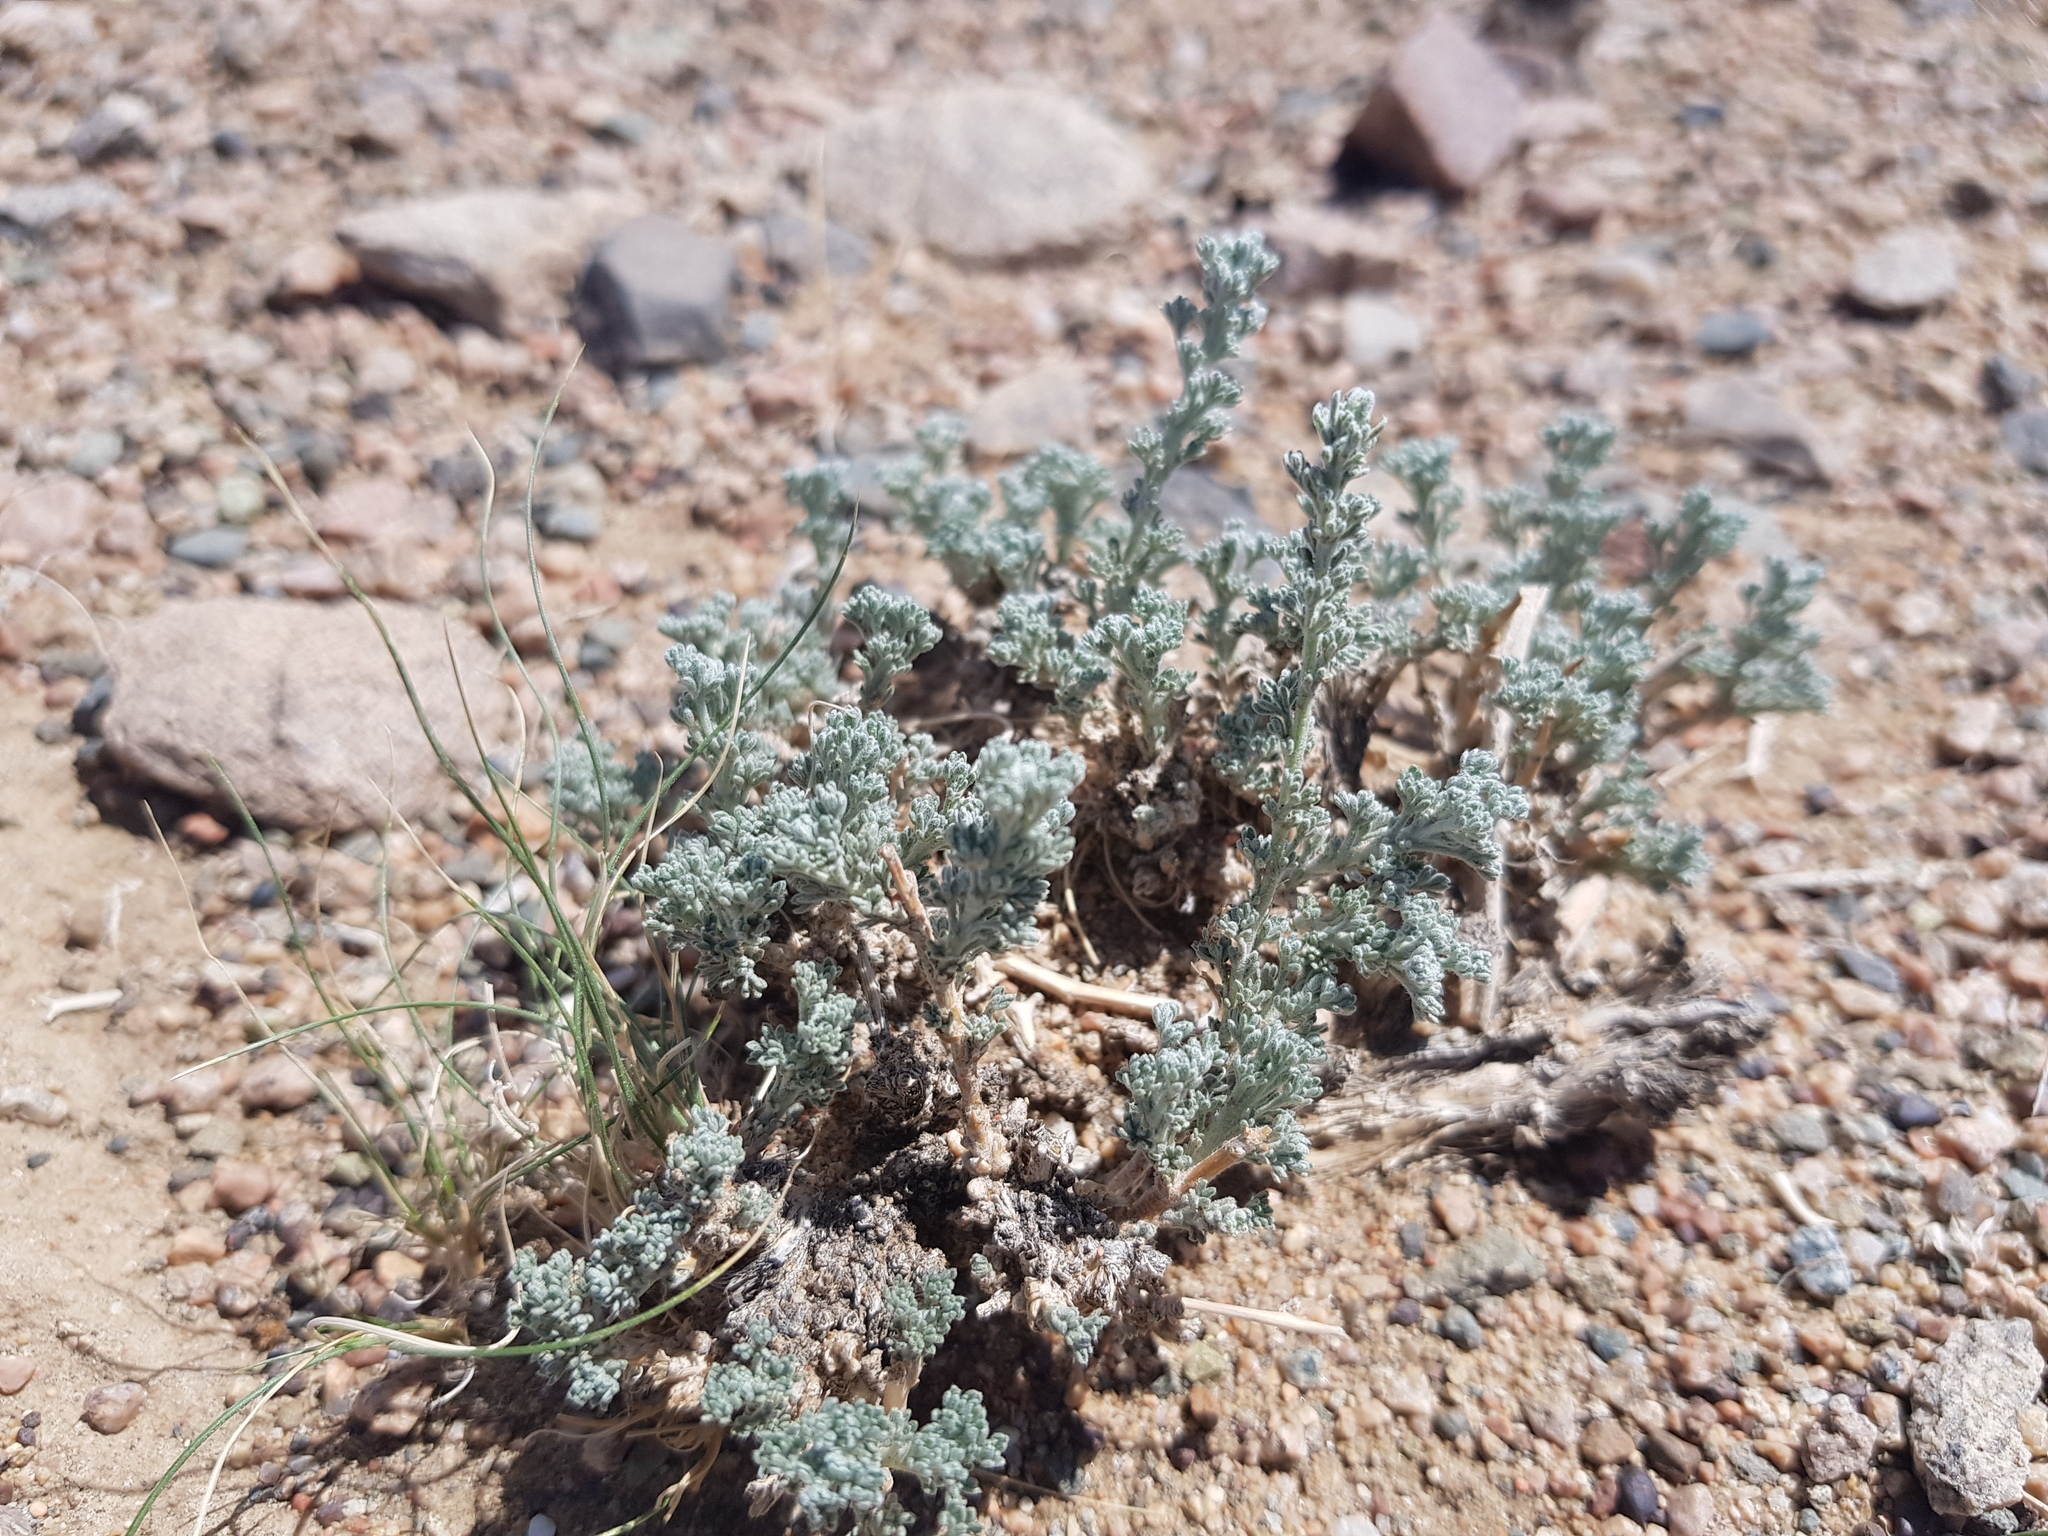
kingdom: Plantae
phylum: Tracheophyta
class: Magnoliopsida
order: Asterales
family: Asteraceae
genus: Artemisia
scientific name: Artemisia xerophytica
